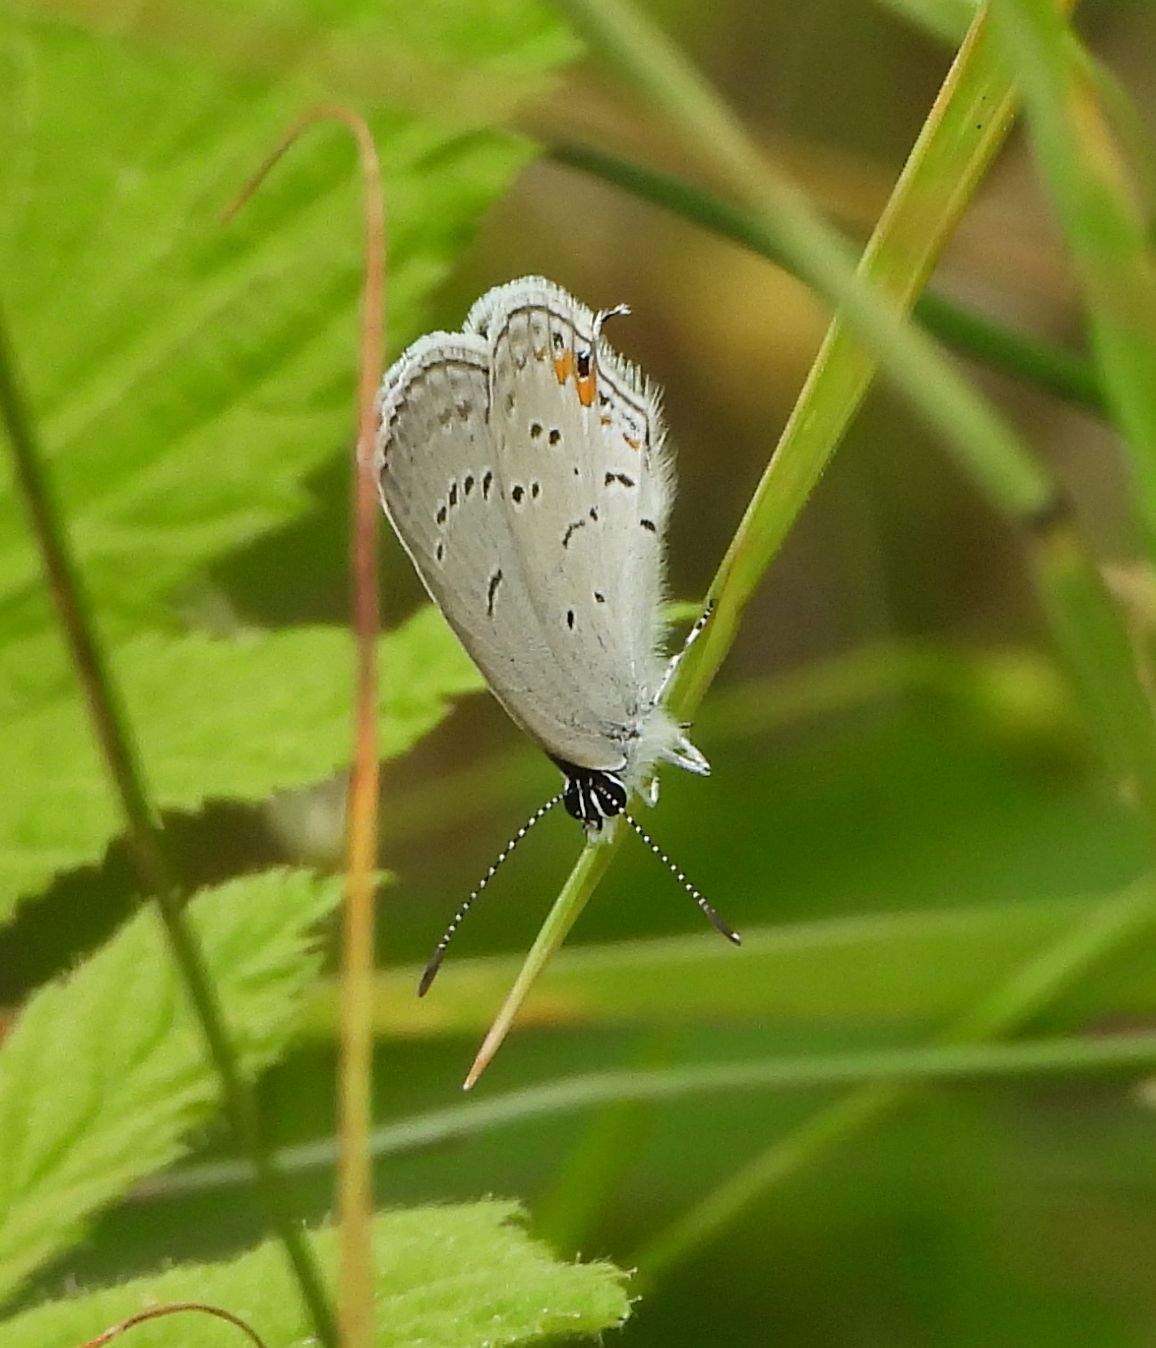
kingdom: Animalia
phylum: Arthropoda
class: Insecta
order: Lepidoptera
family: Lycaenidae
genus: Elkalyce
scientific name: Elkalyce comyntas
